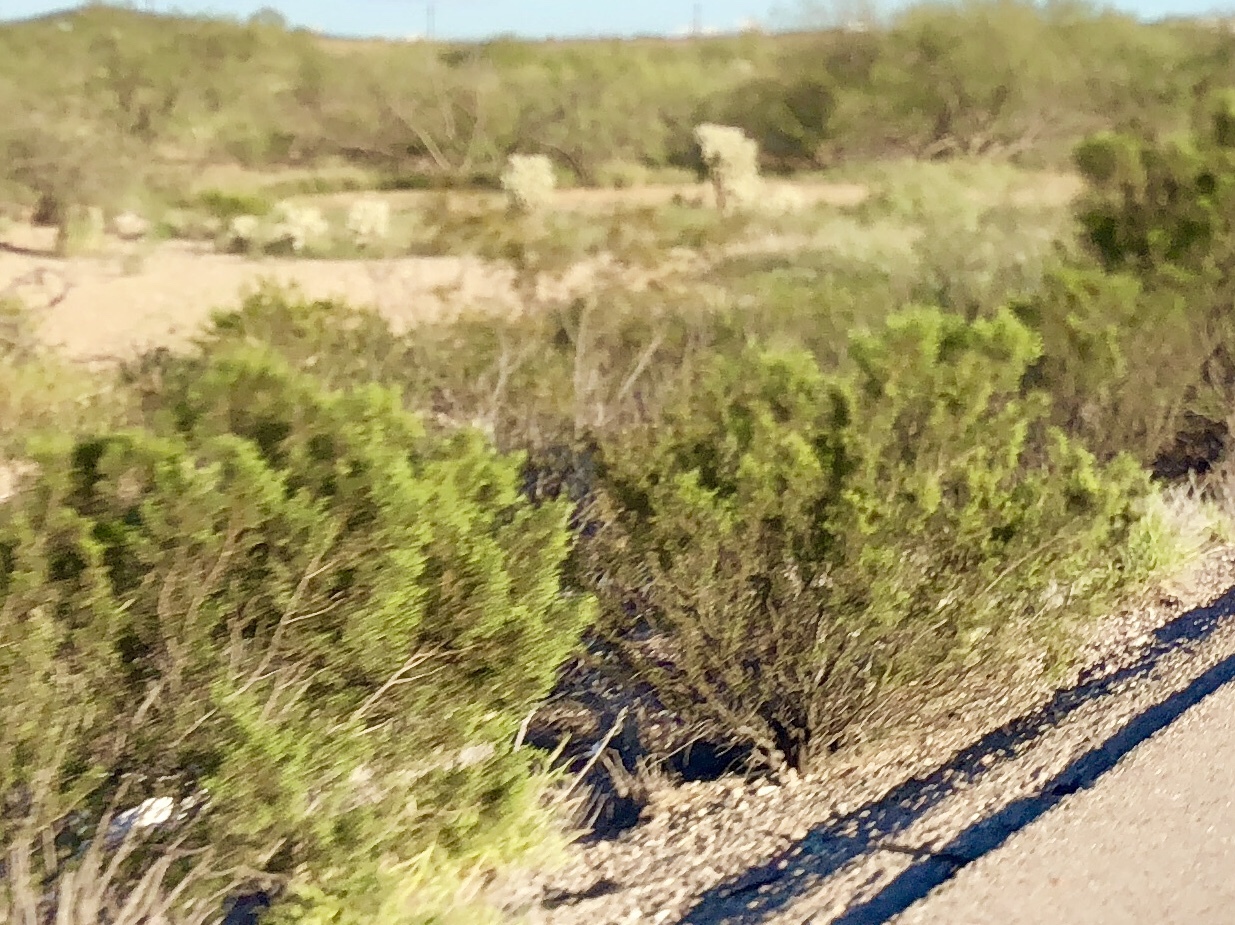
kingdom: Plantae
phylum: Tracheophyta
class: Magnoliopsida
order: Zygophyllales
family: Zygophyllaceae
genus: Larrea
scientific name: Larrea tridentata
